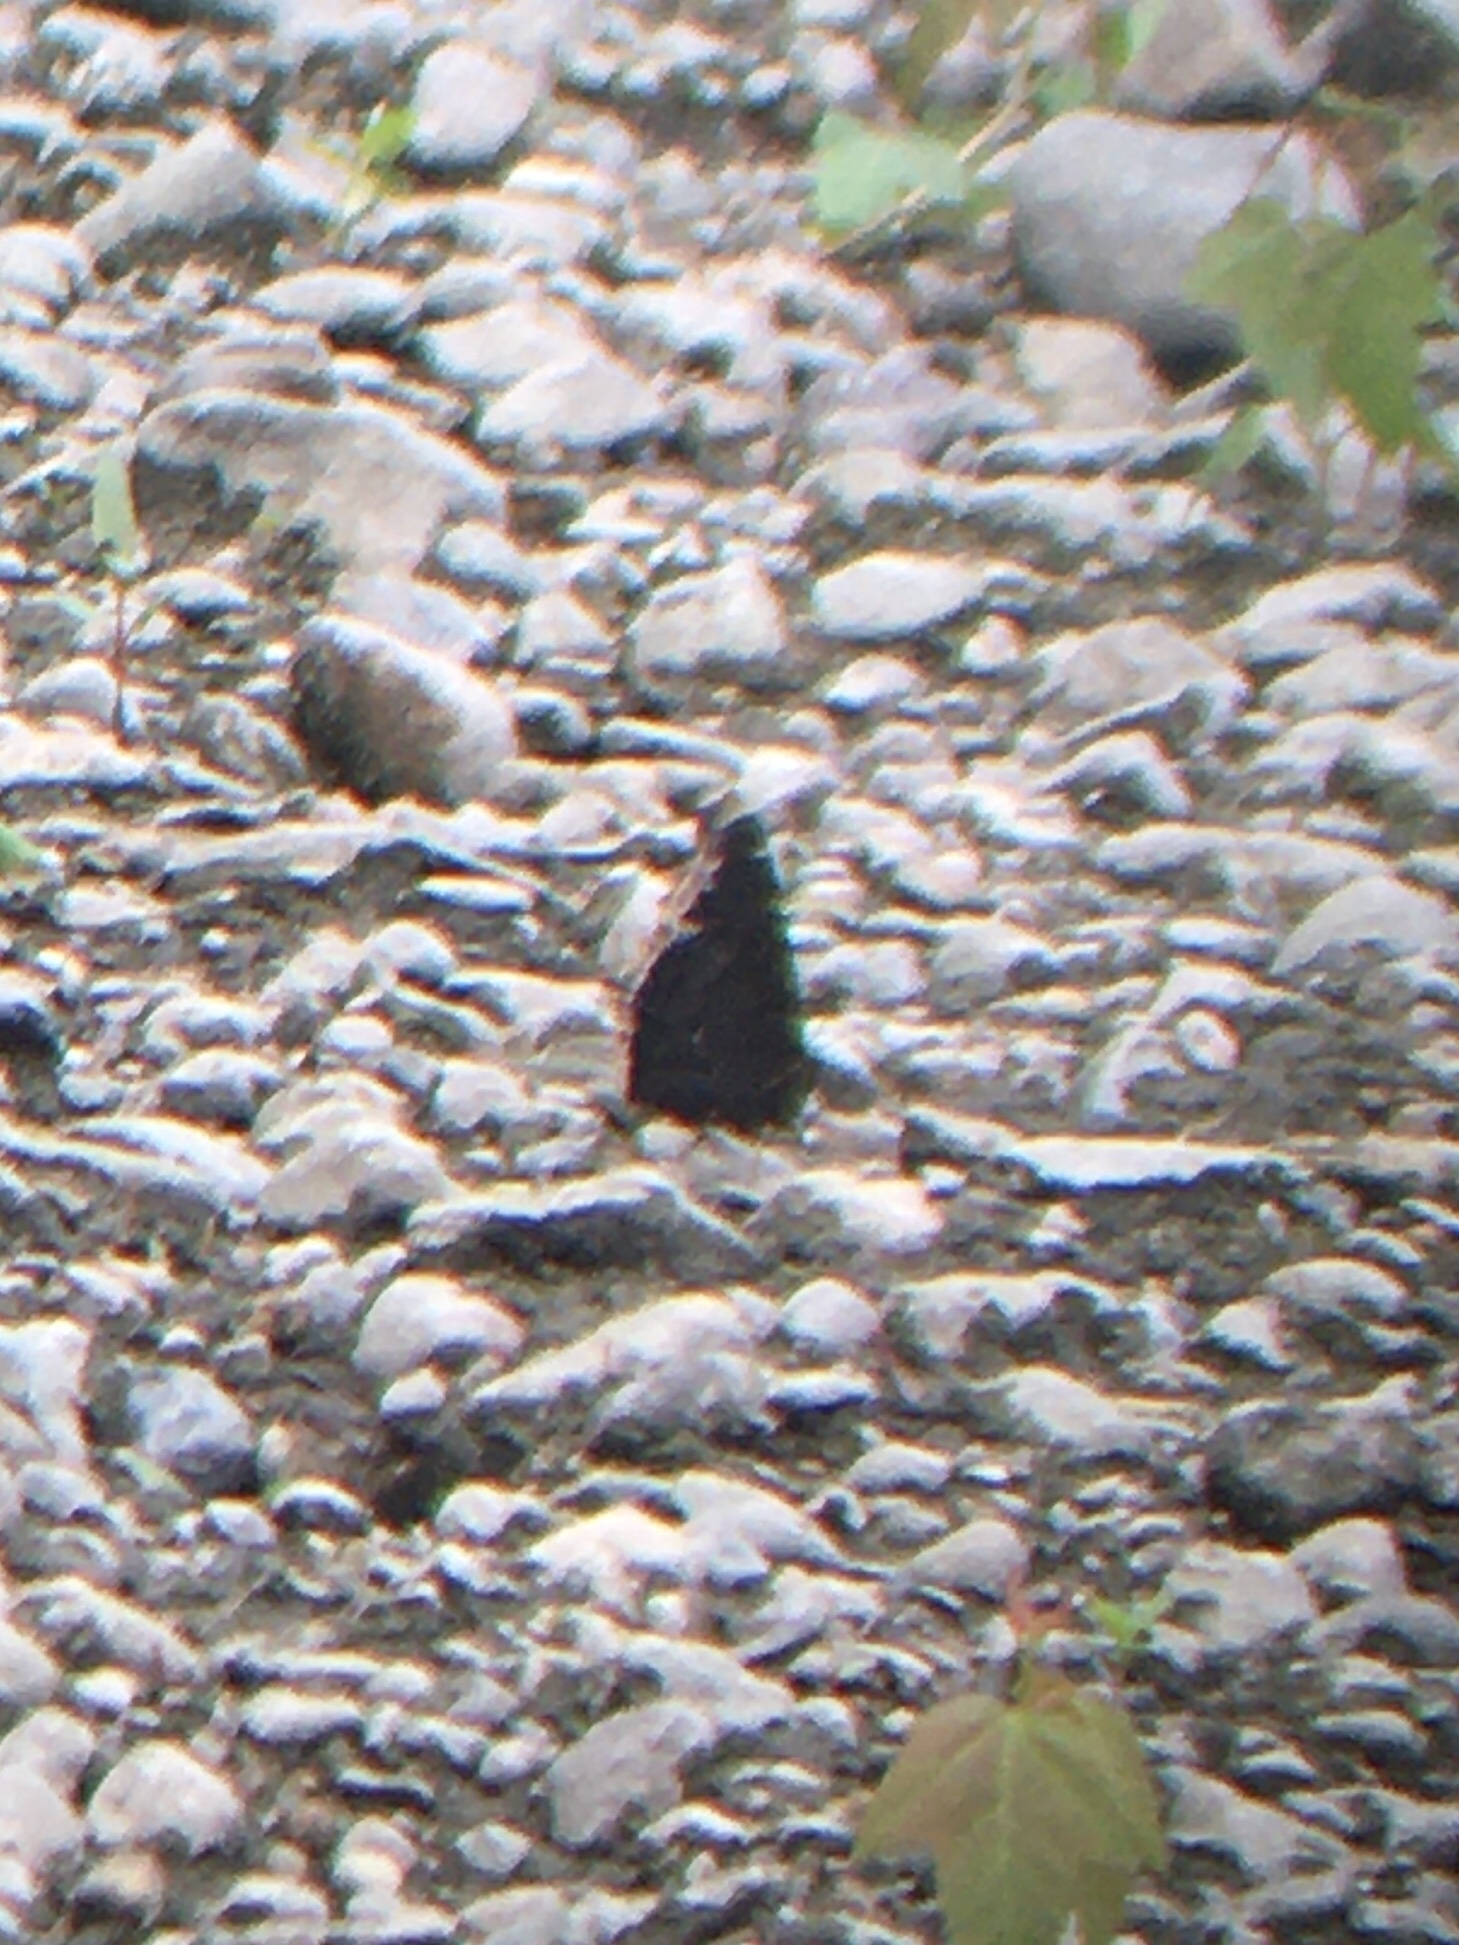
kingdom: Animalia
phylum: Arthropoda
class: Insecta
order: Lepidoptera
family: Nymphalidae
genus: Nymphalis
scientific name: Nymphalis antiopa
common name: Camberwell beauty
